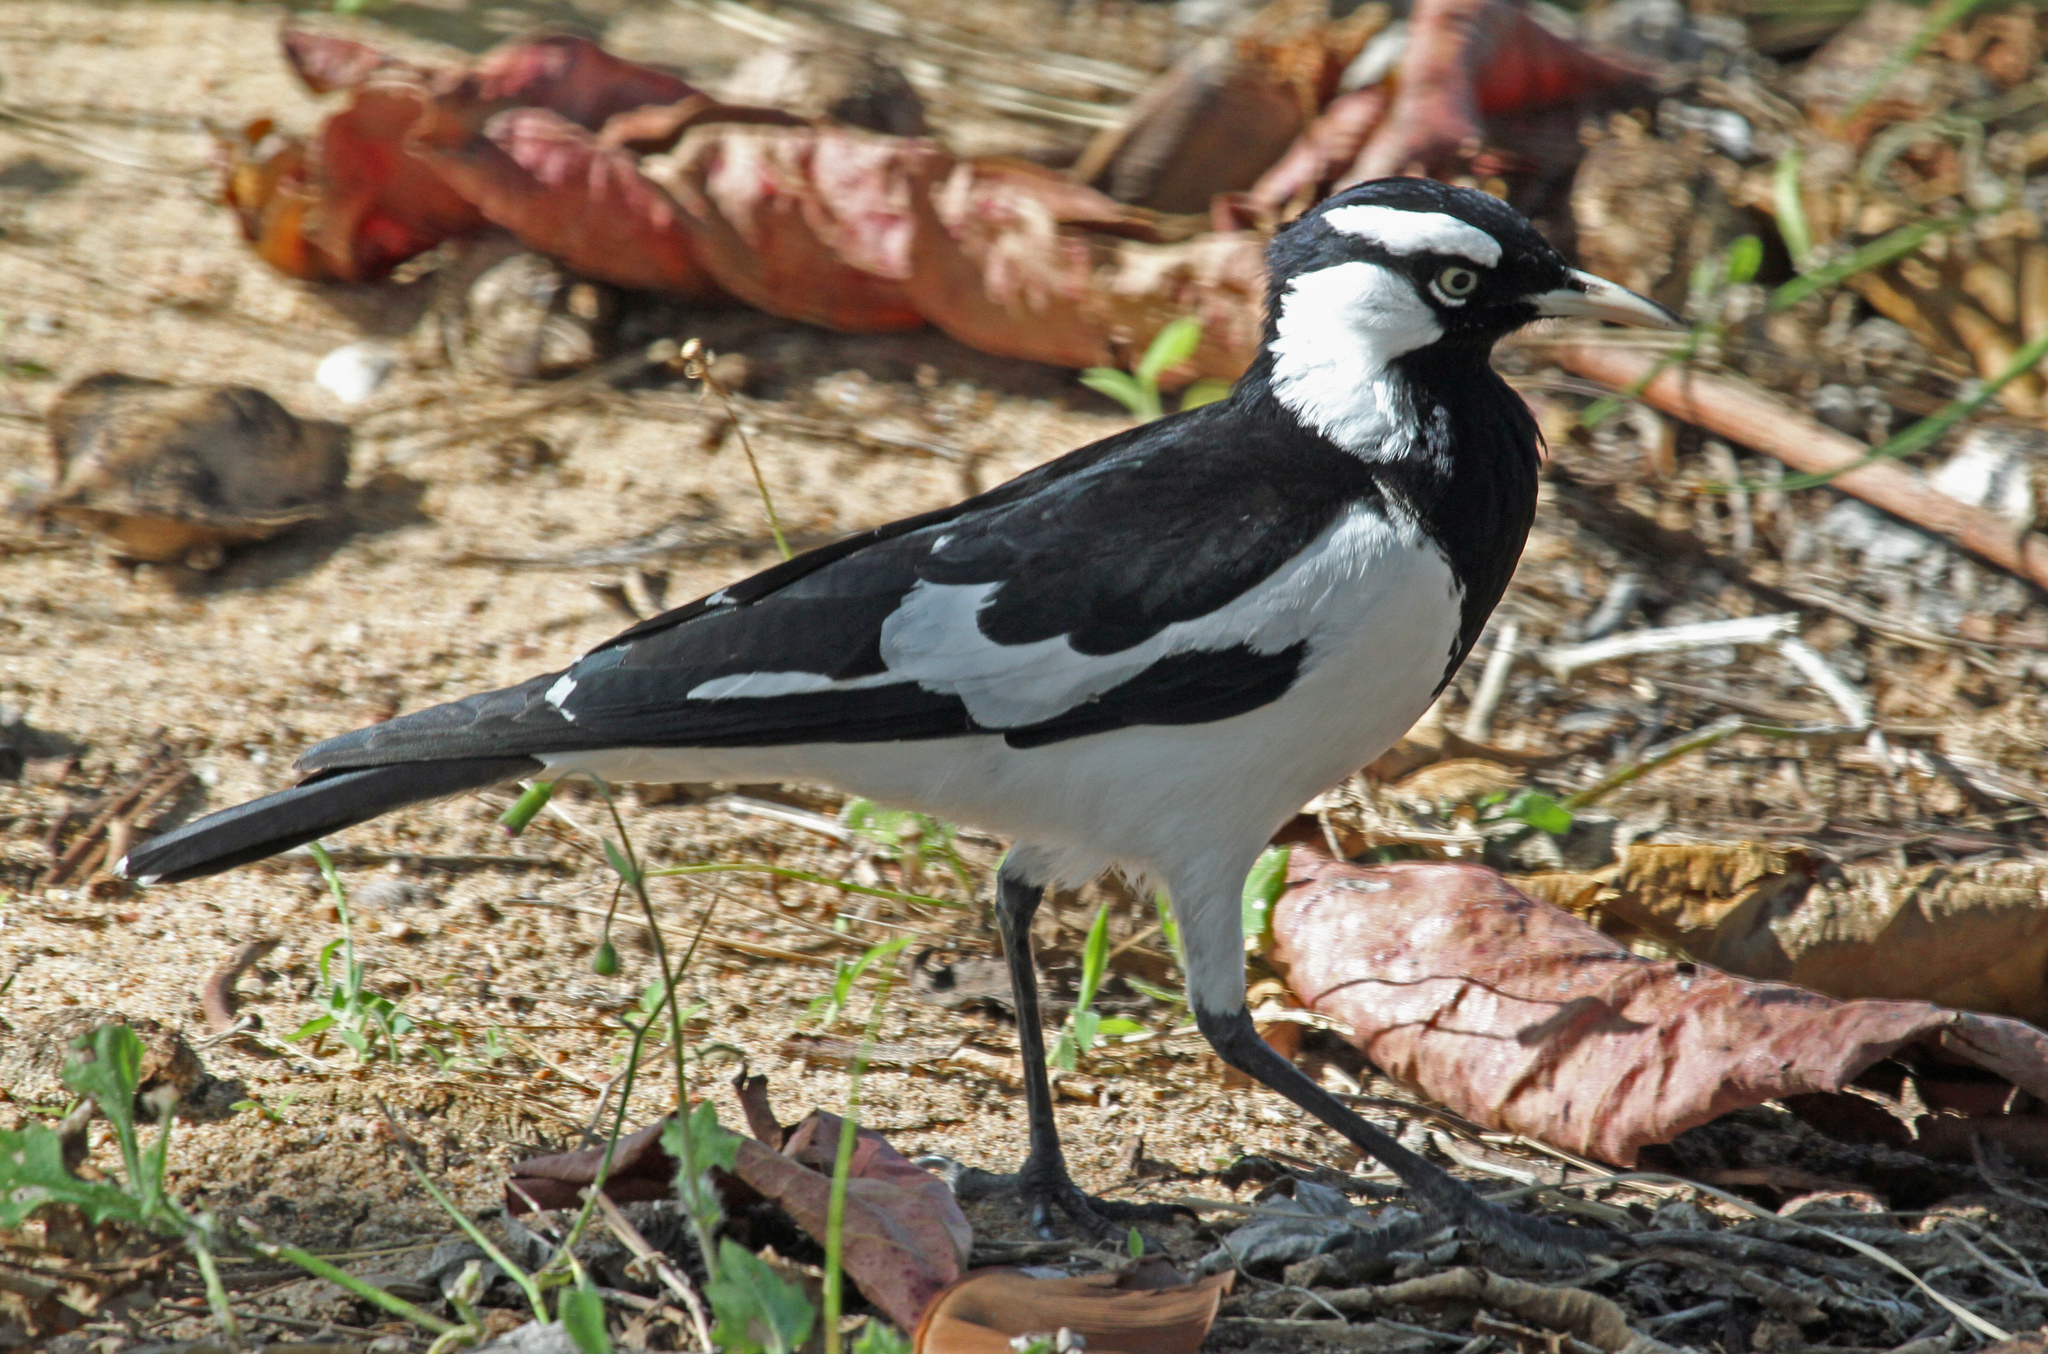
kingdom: Animalia
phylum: Chordata
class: Aves
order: Passeriformes
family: Monarchidae
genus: Grallina
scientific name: Grallina cyanoleuca
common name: Magpie-lark
